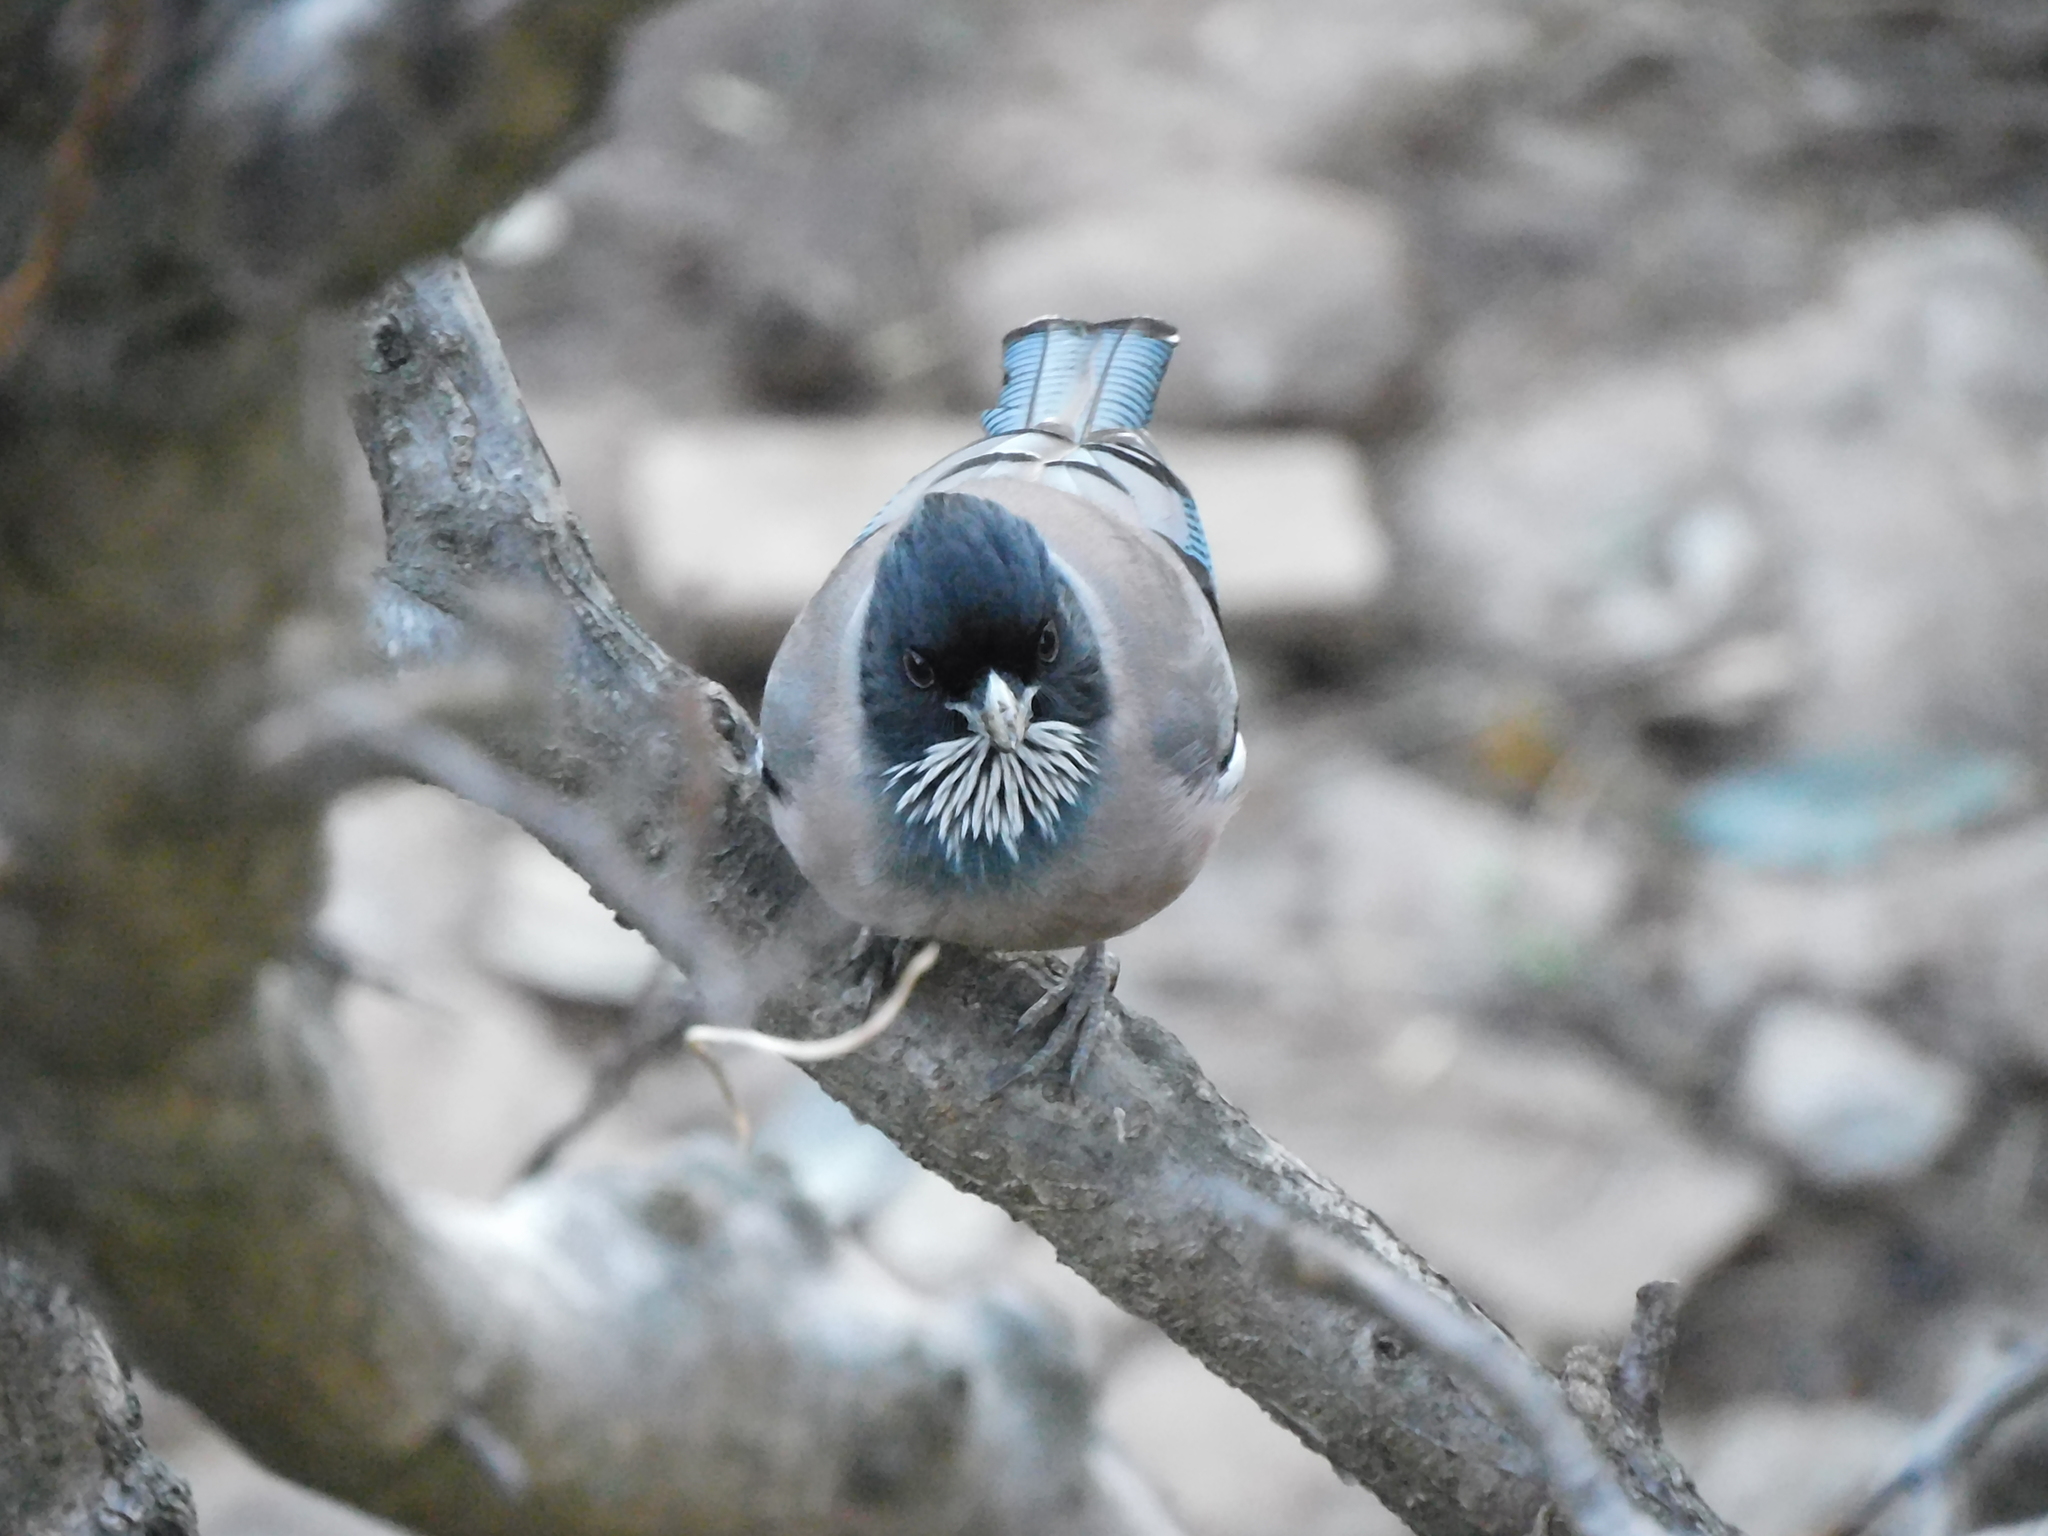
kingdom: Animalia
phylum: Chordata
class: Aves
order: Passeriformes
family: Corvidae
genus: Garrulus
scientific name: Garrulus lanceolatus
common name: Black-headed jay
